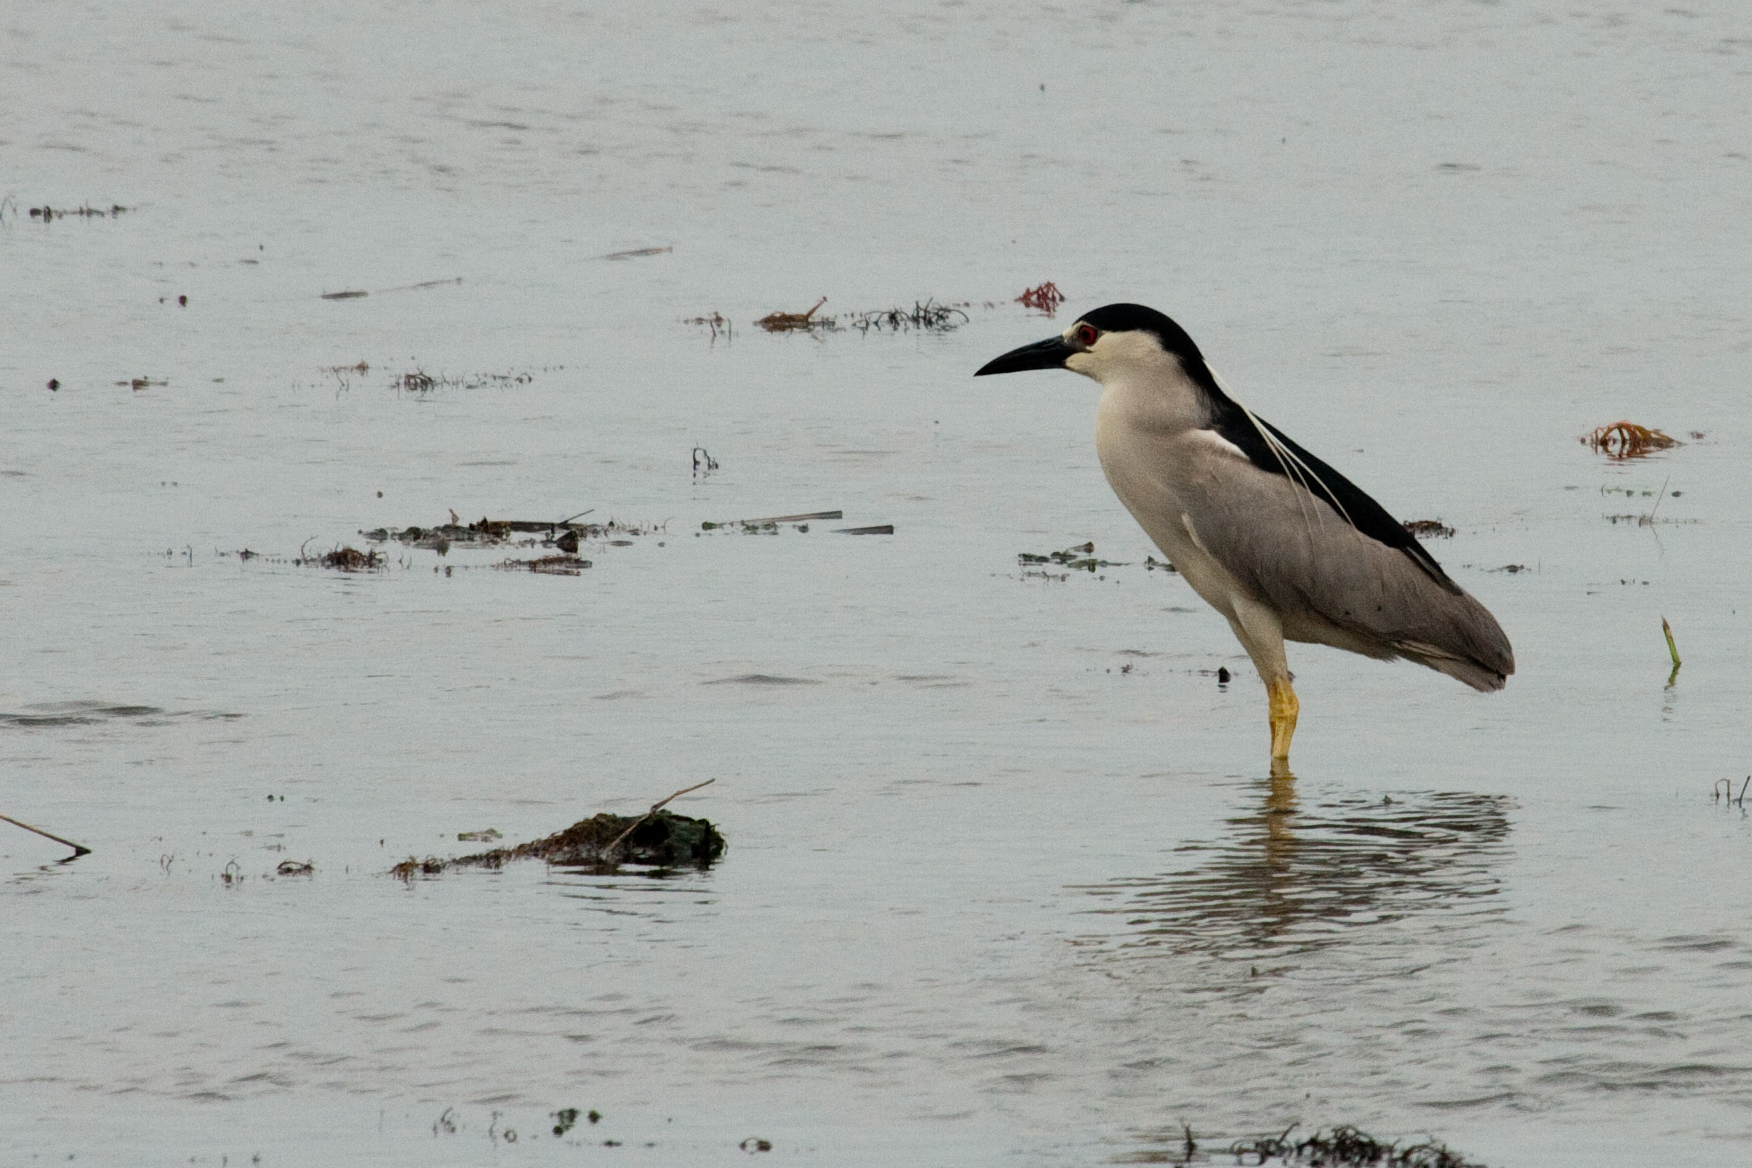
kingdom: Animalia
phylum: Chordata
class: Aves
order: Pelecaniformes
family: Ardeidae
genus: Nycticorax
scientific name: Nycticorax nycticorax
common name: Black-crowned night heron
